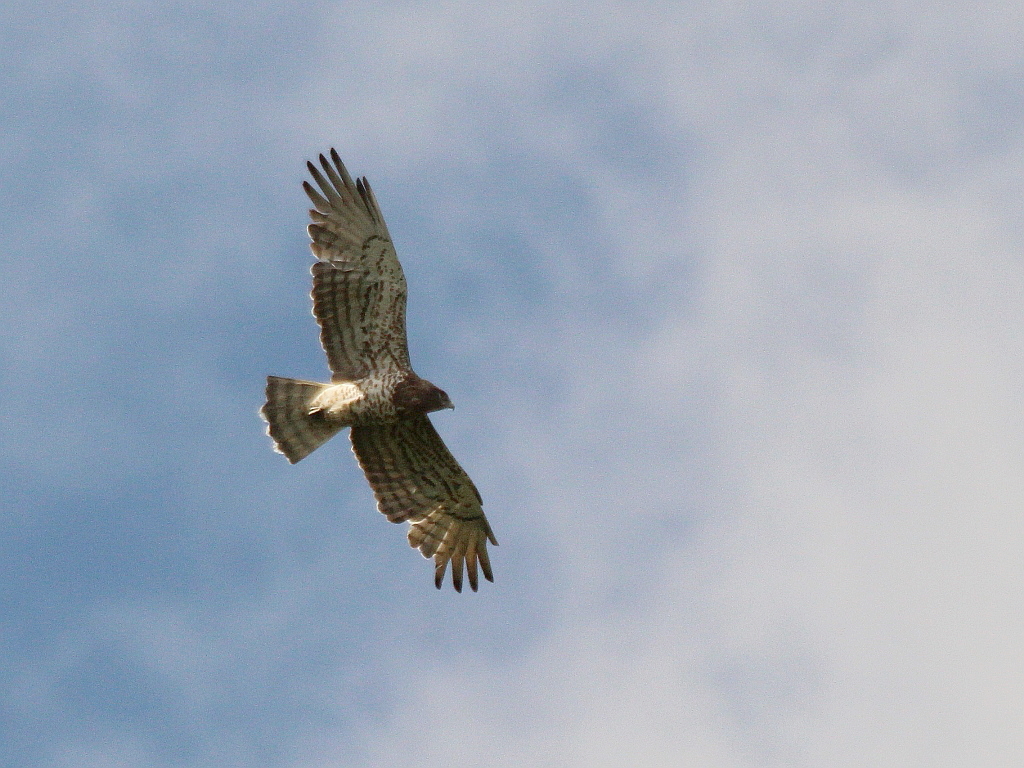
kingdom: Animalia
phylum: Chordata
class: Aves
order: Accipitriformes
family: Accipitridae
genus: Circaetus
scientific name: Circaetus gallicus
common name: Short-toed snake eagle
